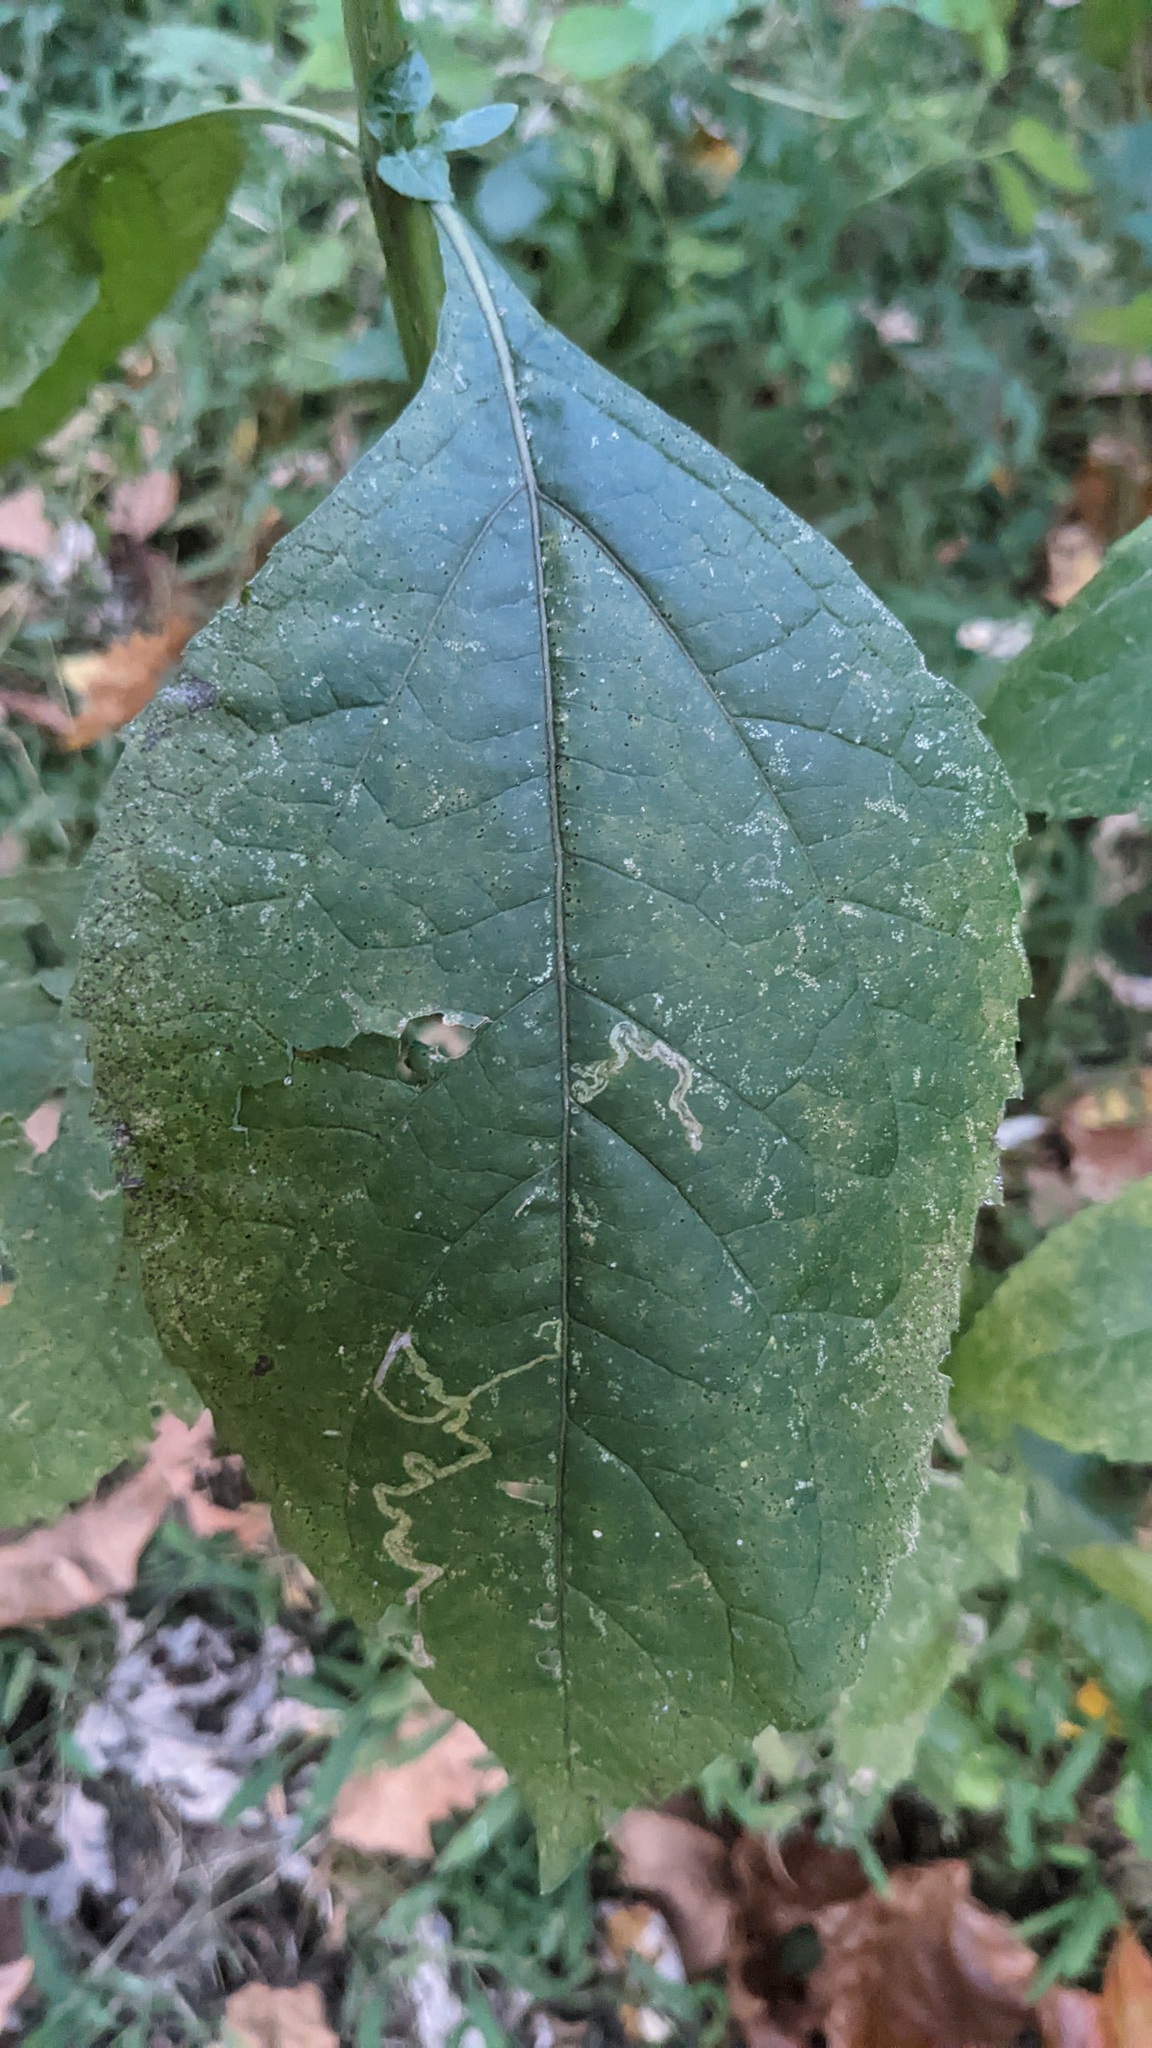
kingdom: Plantae
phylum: Tracheophyta
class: Magnoliopsida
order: Asterales
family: Asteraceae
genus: Verbesina
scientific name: Verbesina occidentalis
